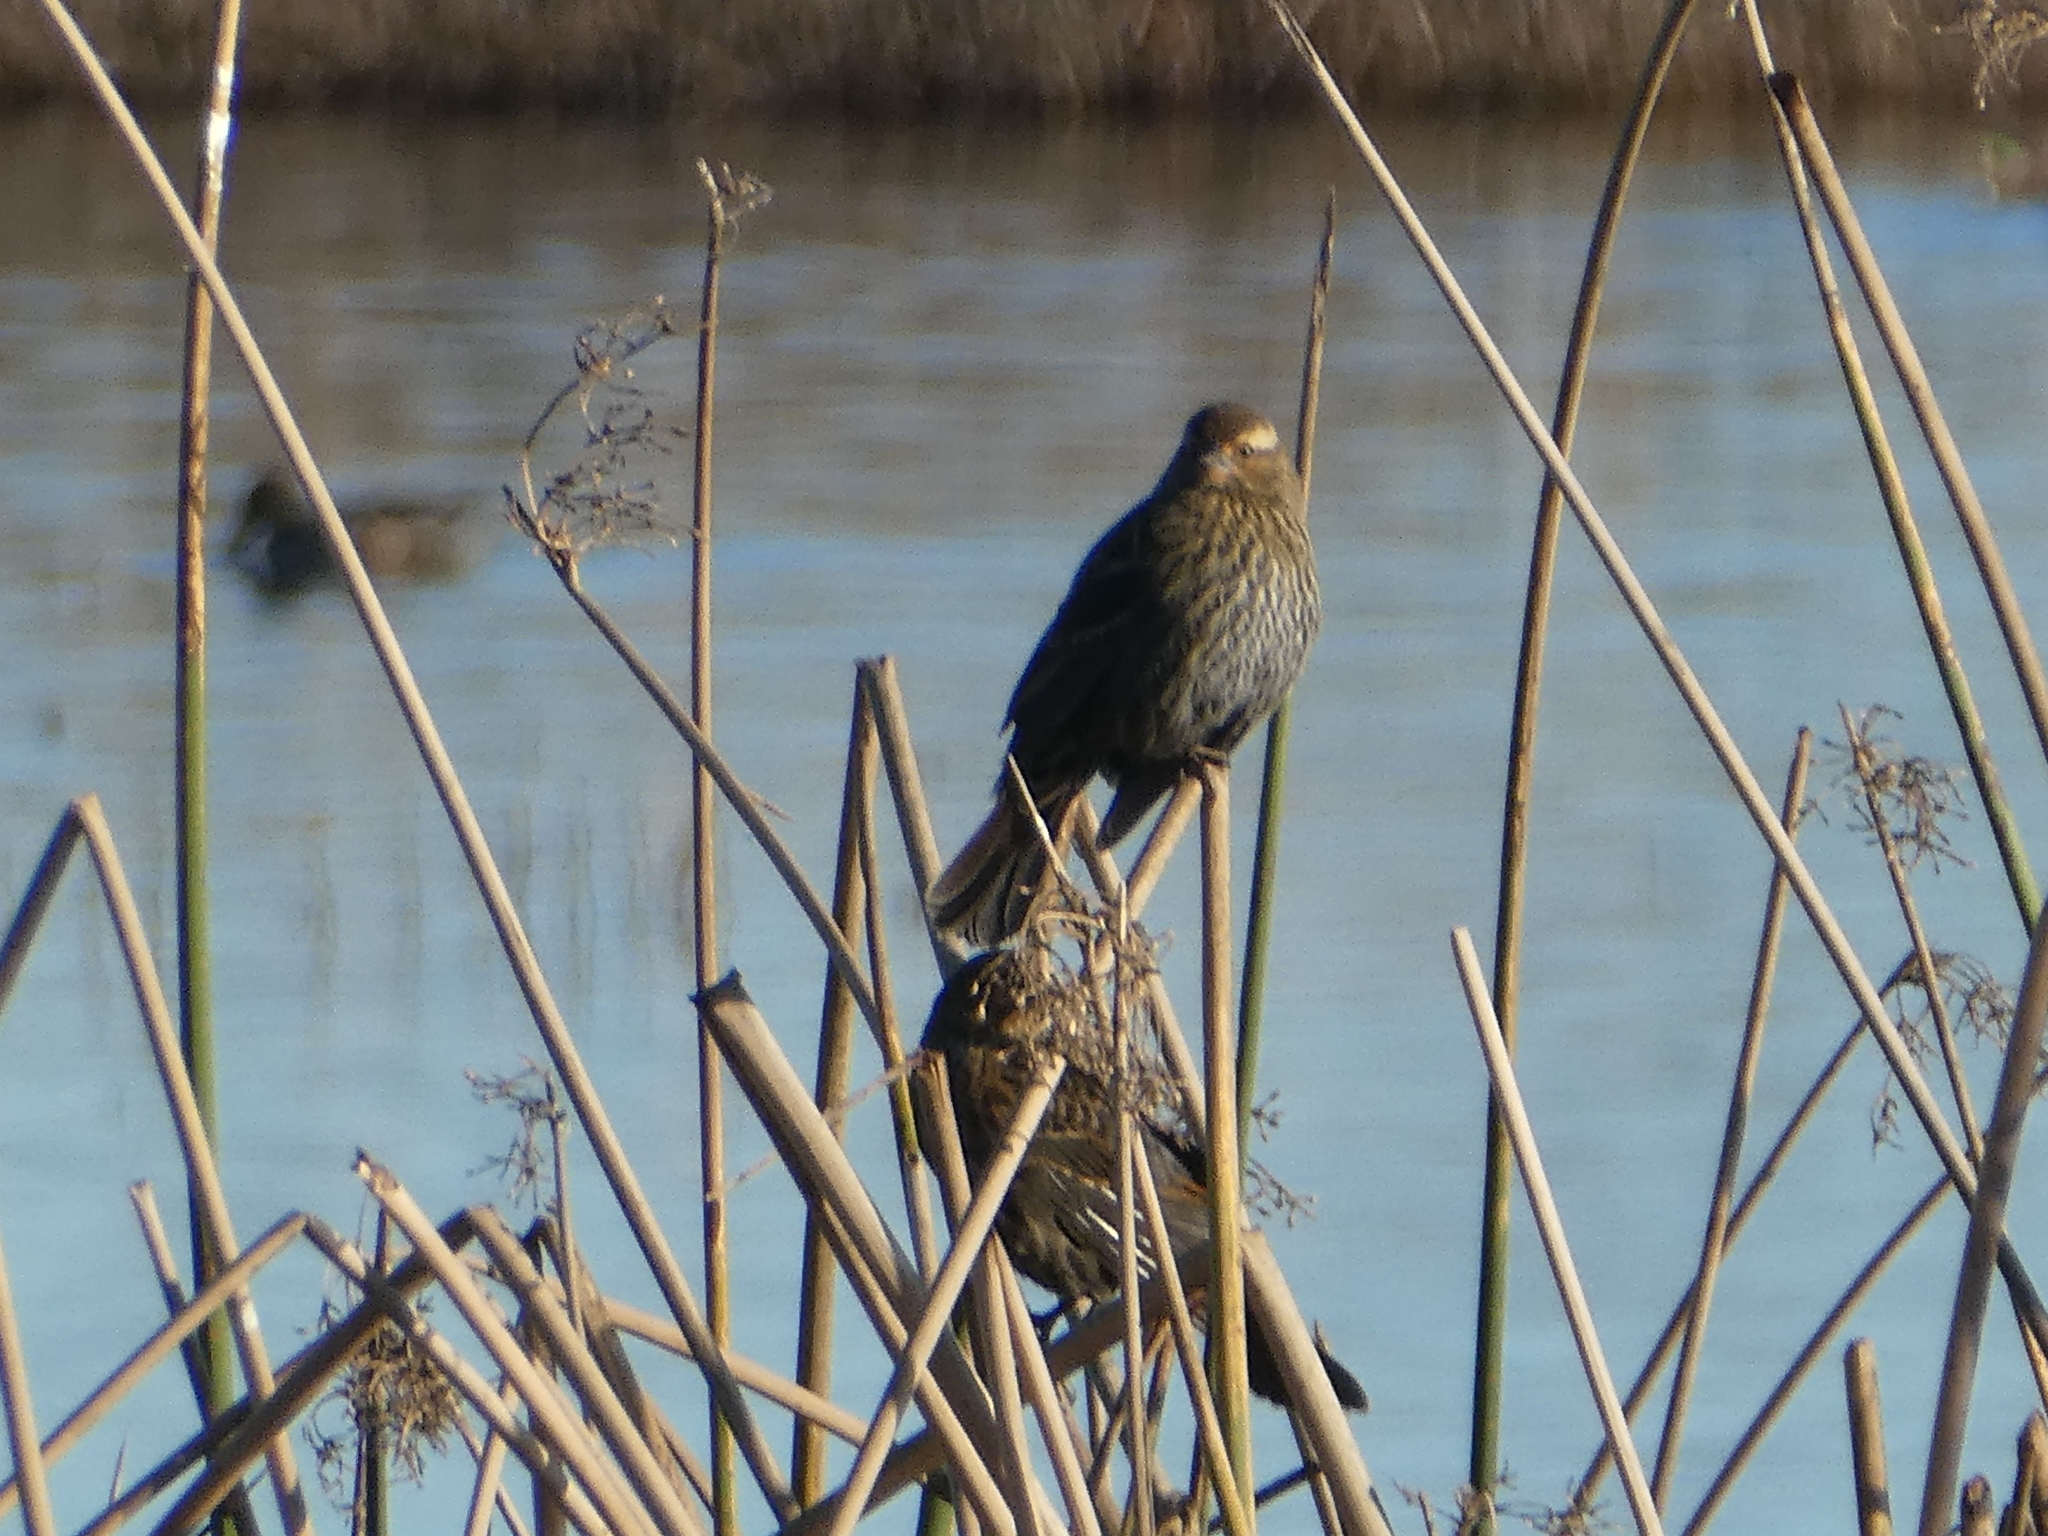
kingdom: Animalia
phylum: Chordata
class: Aves
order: Passeriformes
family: Icteridae
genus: Agelaius
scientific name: Agelaius phoeniceus
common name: Red-winged blackbird
